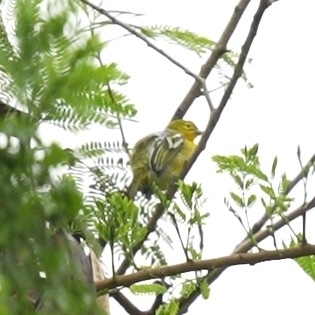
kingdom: Animalia
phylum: Chordata
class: Aves
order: Passeriformes
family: Aegithinidae
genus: Aegithina
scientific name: Aegithina tiphia
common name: Common iora
